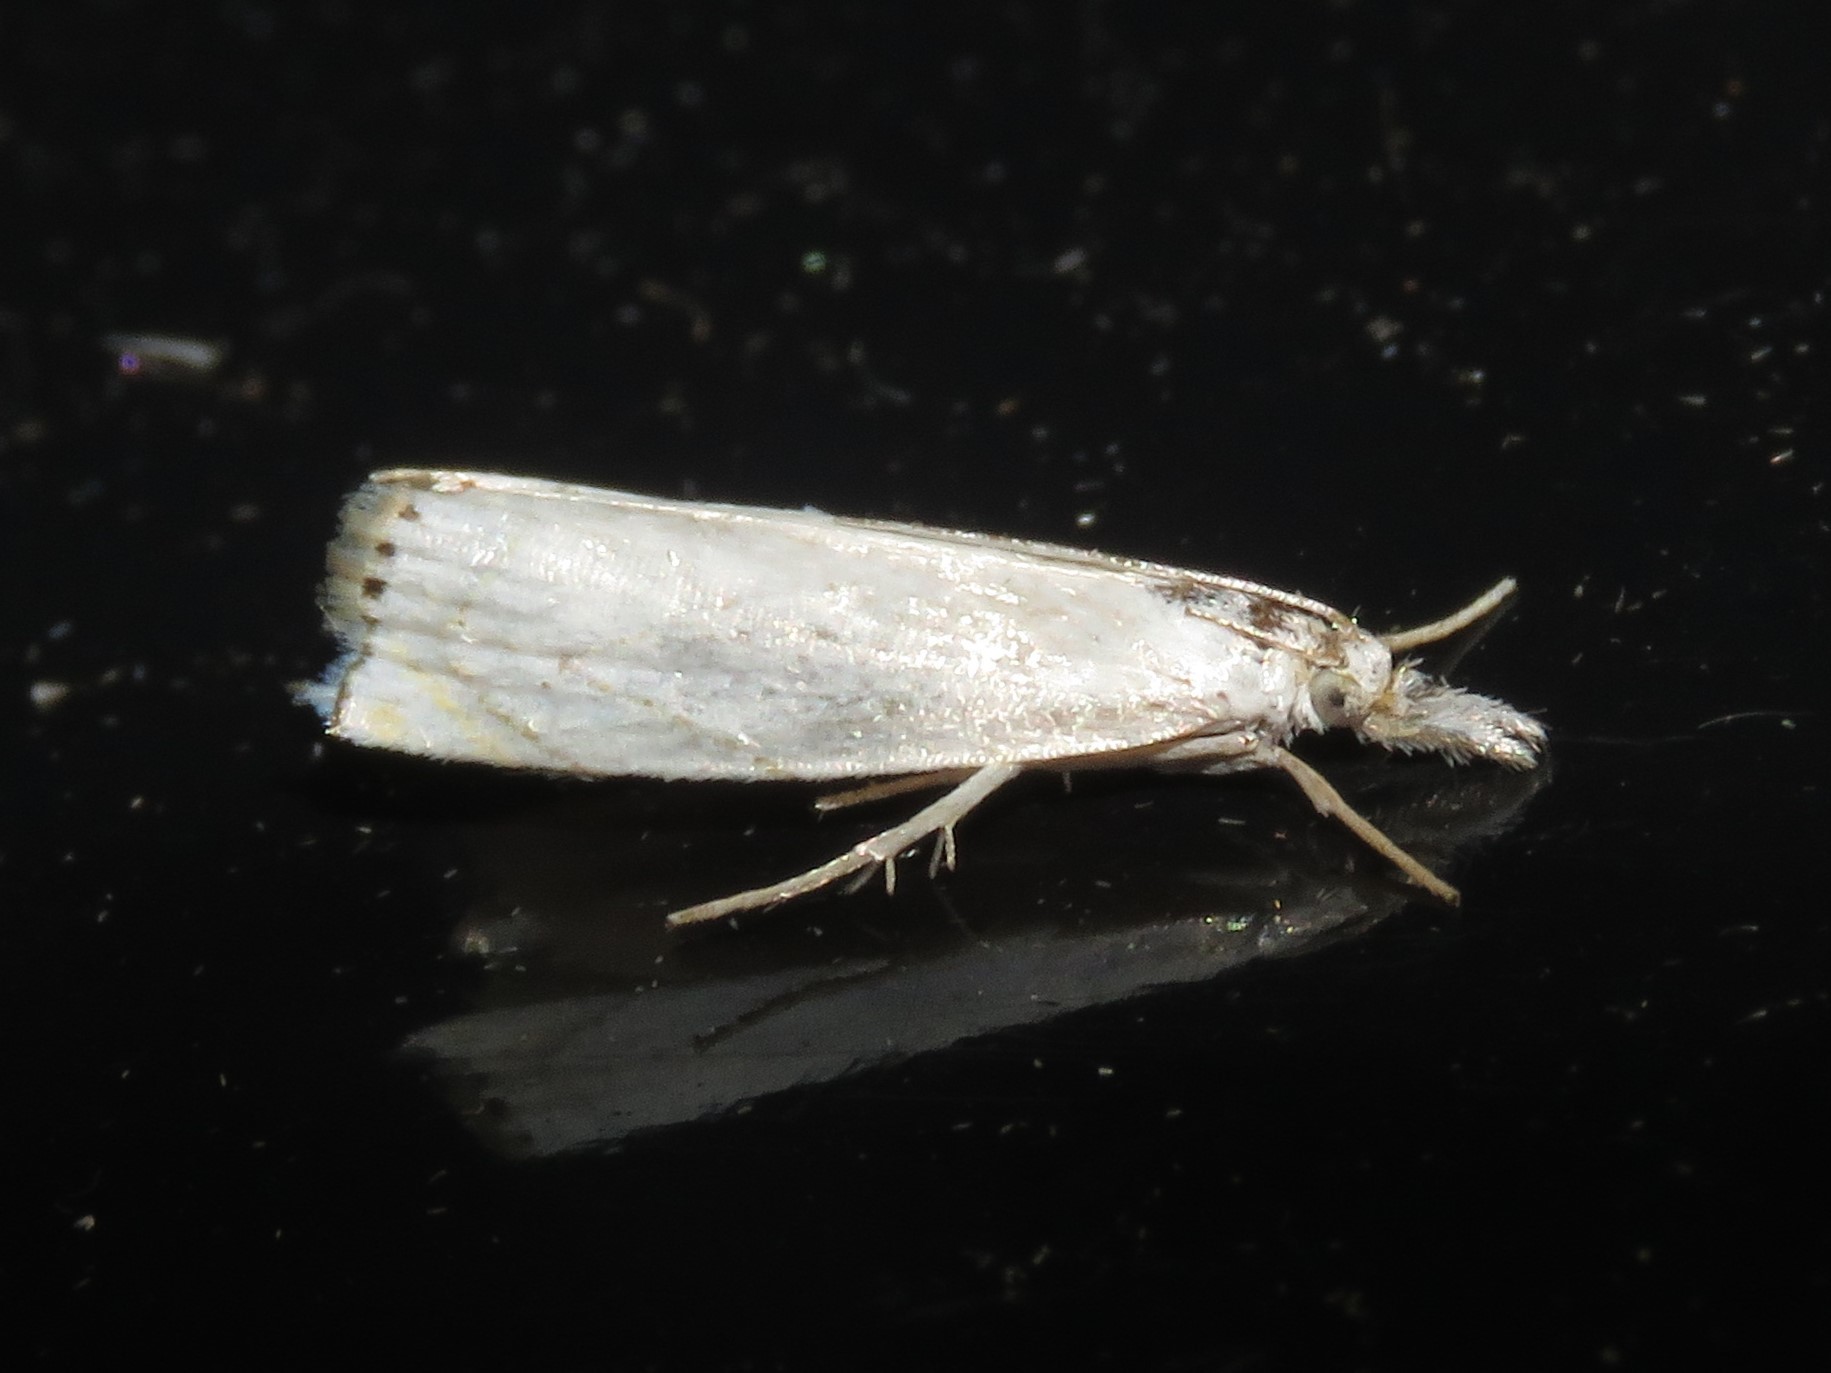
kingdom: Animalia
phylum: Arthropoda
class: Insecta
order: Lepidoptera
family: Crambidae
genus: Crambus
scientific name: Crambus albellus
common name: Small white grass-veneer
